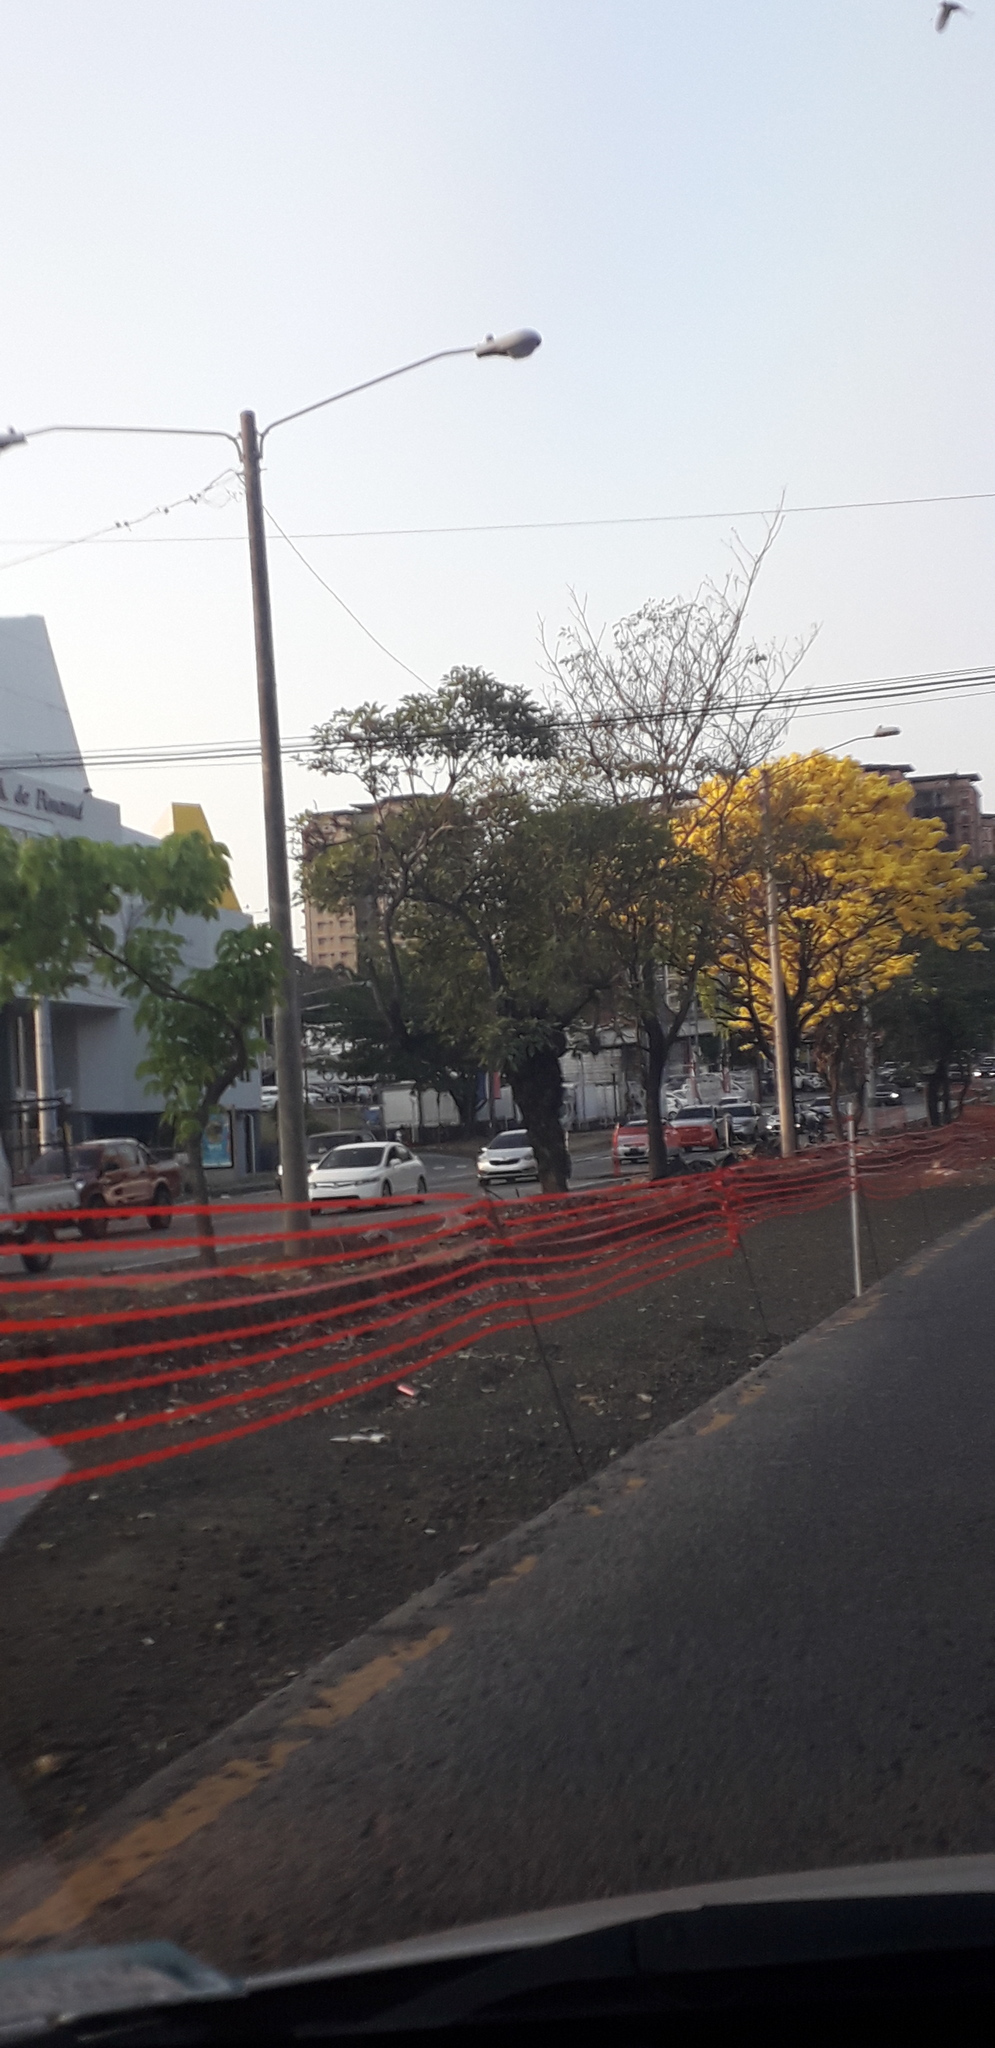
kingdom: Plantae
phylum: Tracheophyta
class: Magnoliopsida
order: Lamiales
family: Bignoniaceae
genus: Handroanthus
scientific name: Handroanthus guayacan
